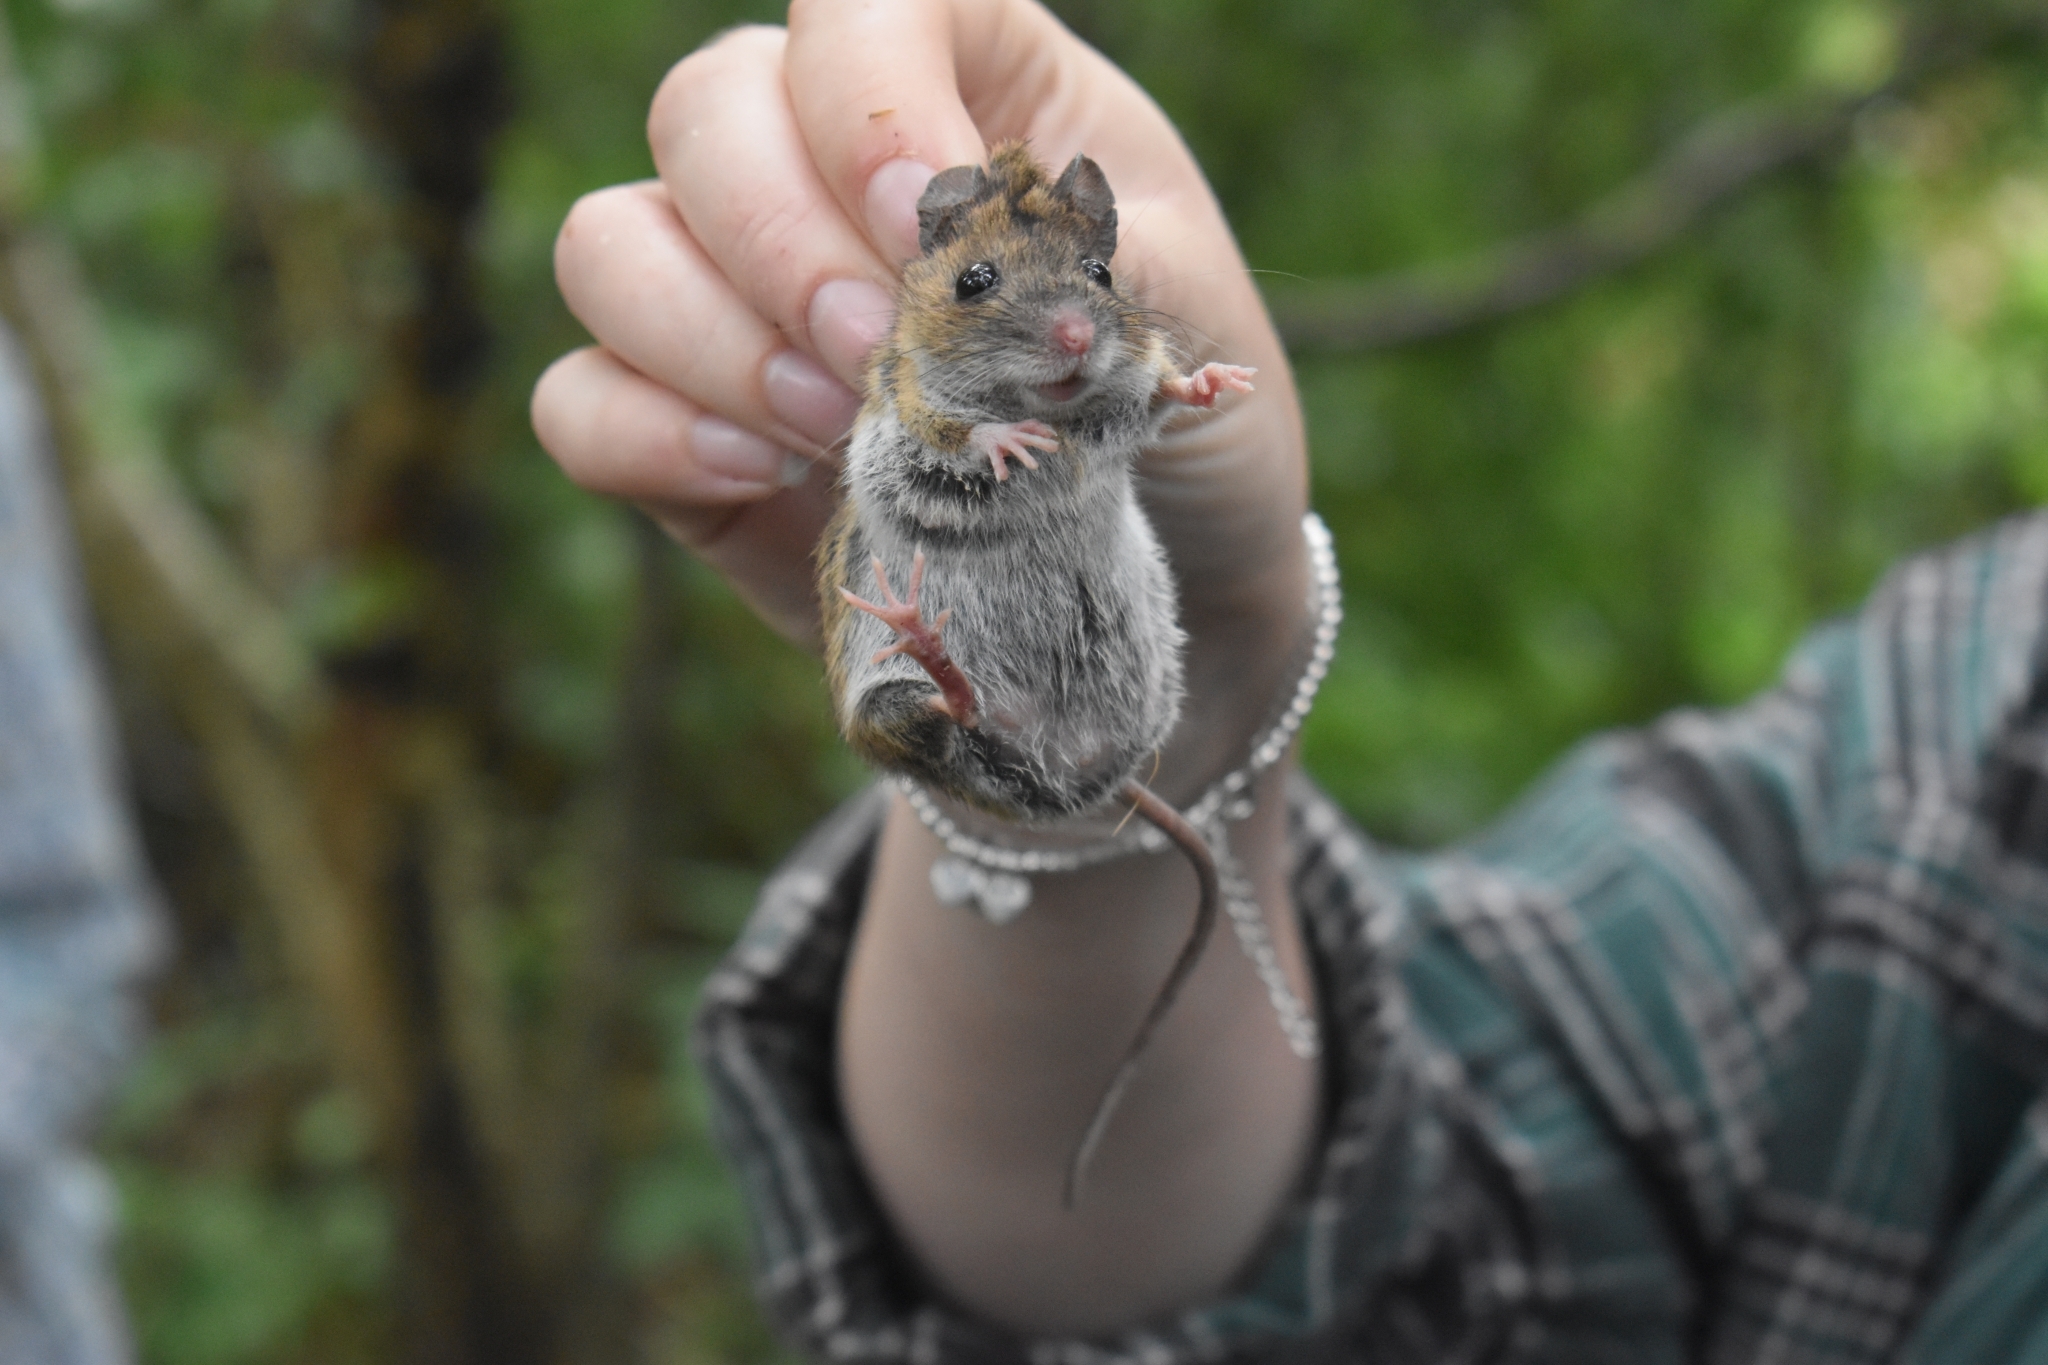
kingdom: Animalia
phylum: Chordata
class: Mammalia
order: Rodentia
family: Muridae
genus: Apodemus
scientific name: Apodemus sylvaticus
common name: Wood mouse
